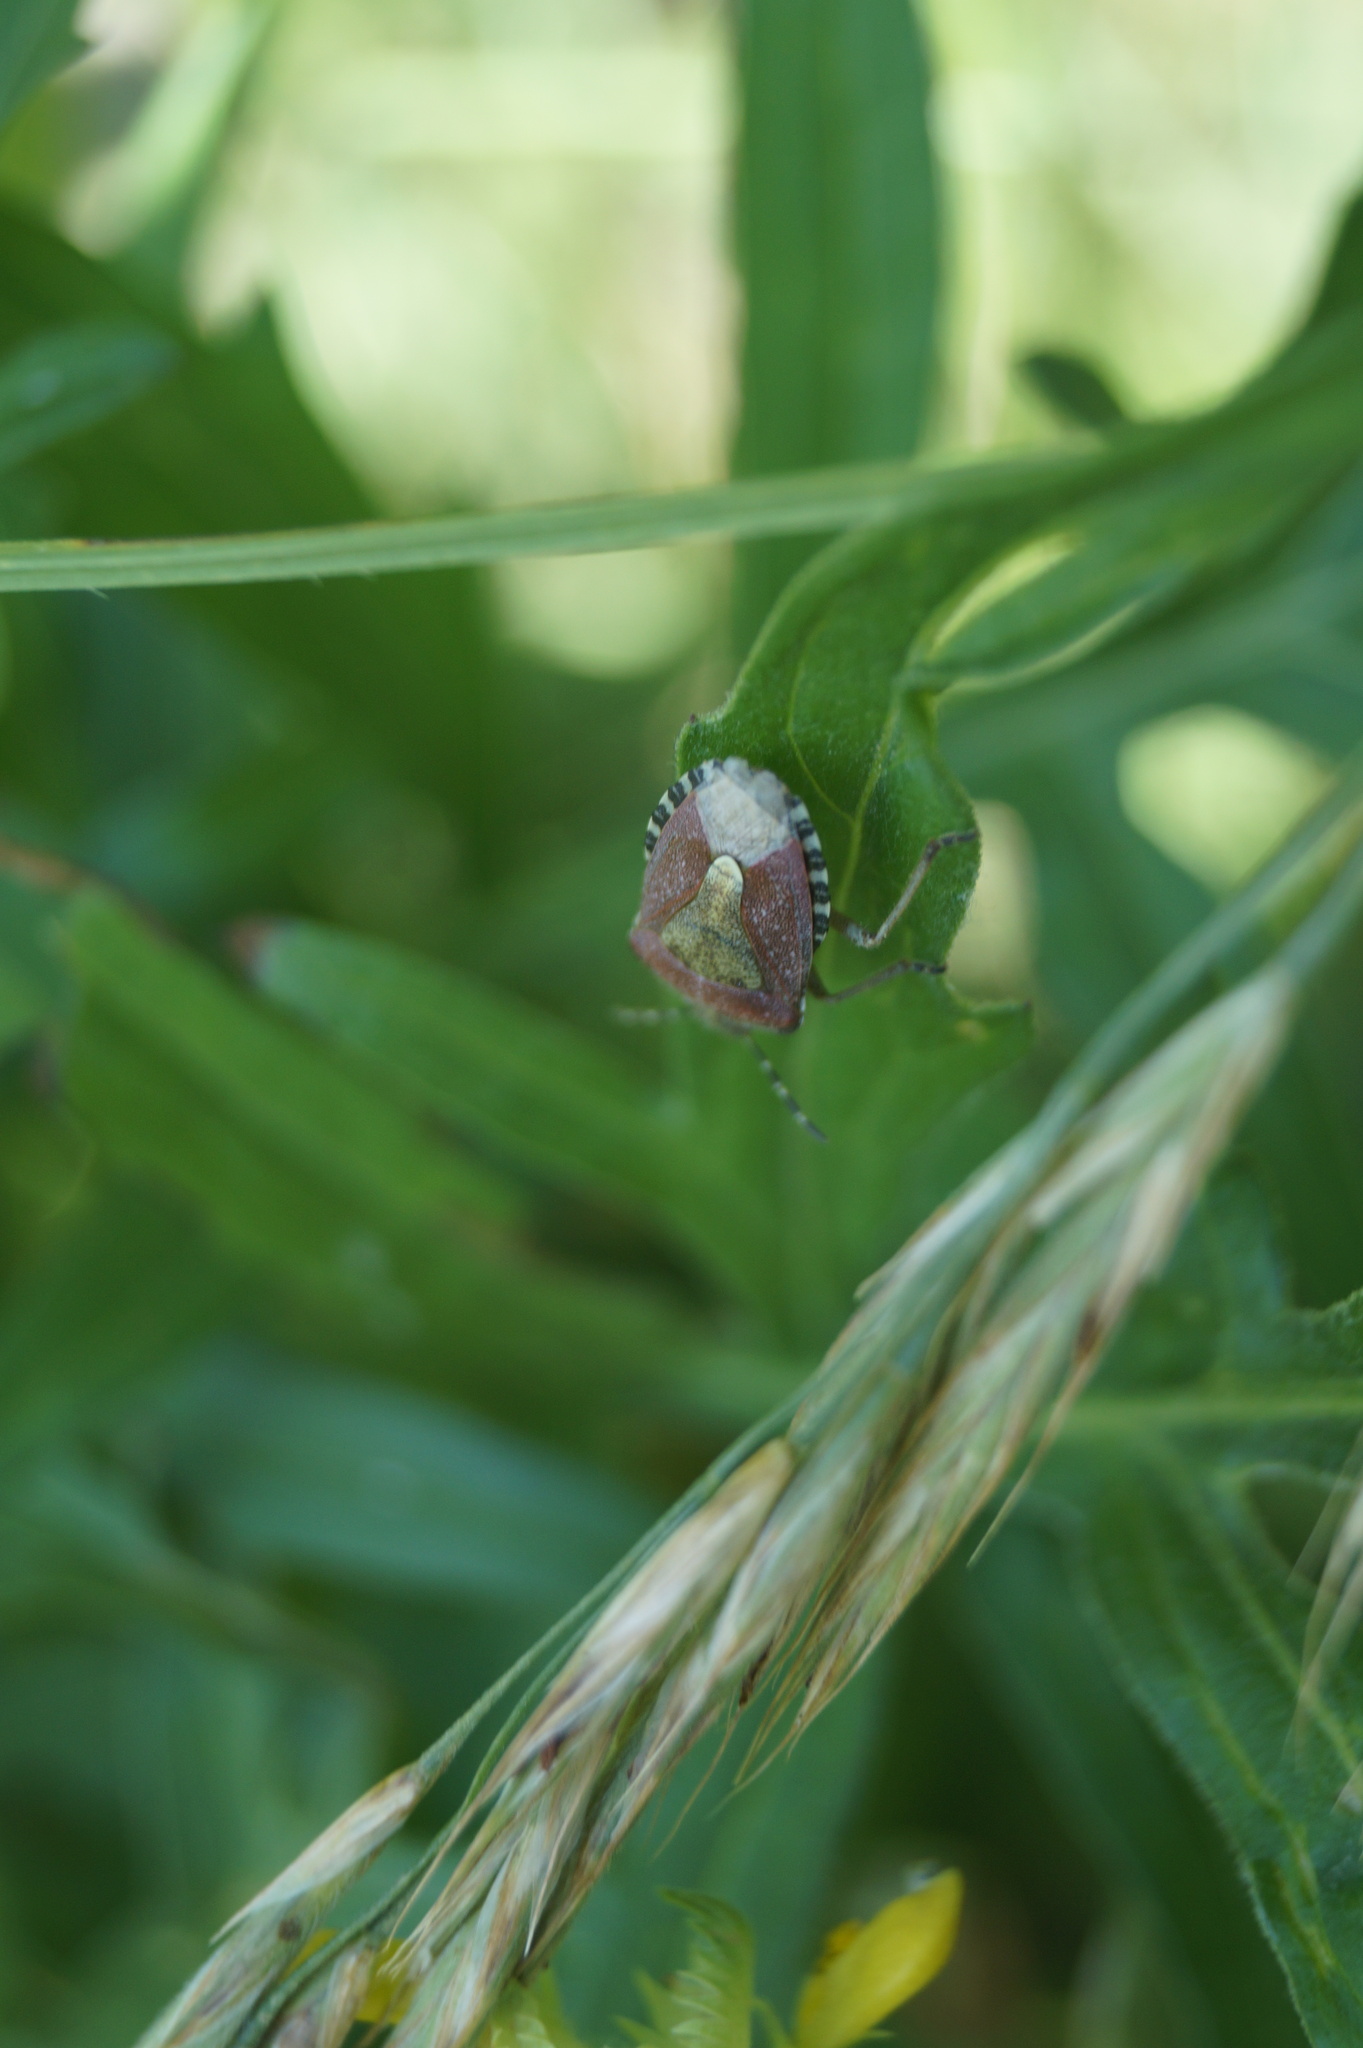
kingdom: Animalia
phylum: Arthropoda
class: Insecta
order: Hemiptera
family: Pentatomidae
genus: Dolycoris
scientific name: Dolycoris baccarum
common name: Sloe bug
